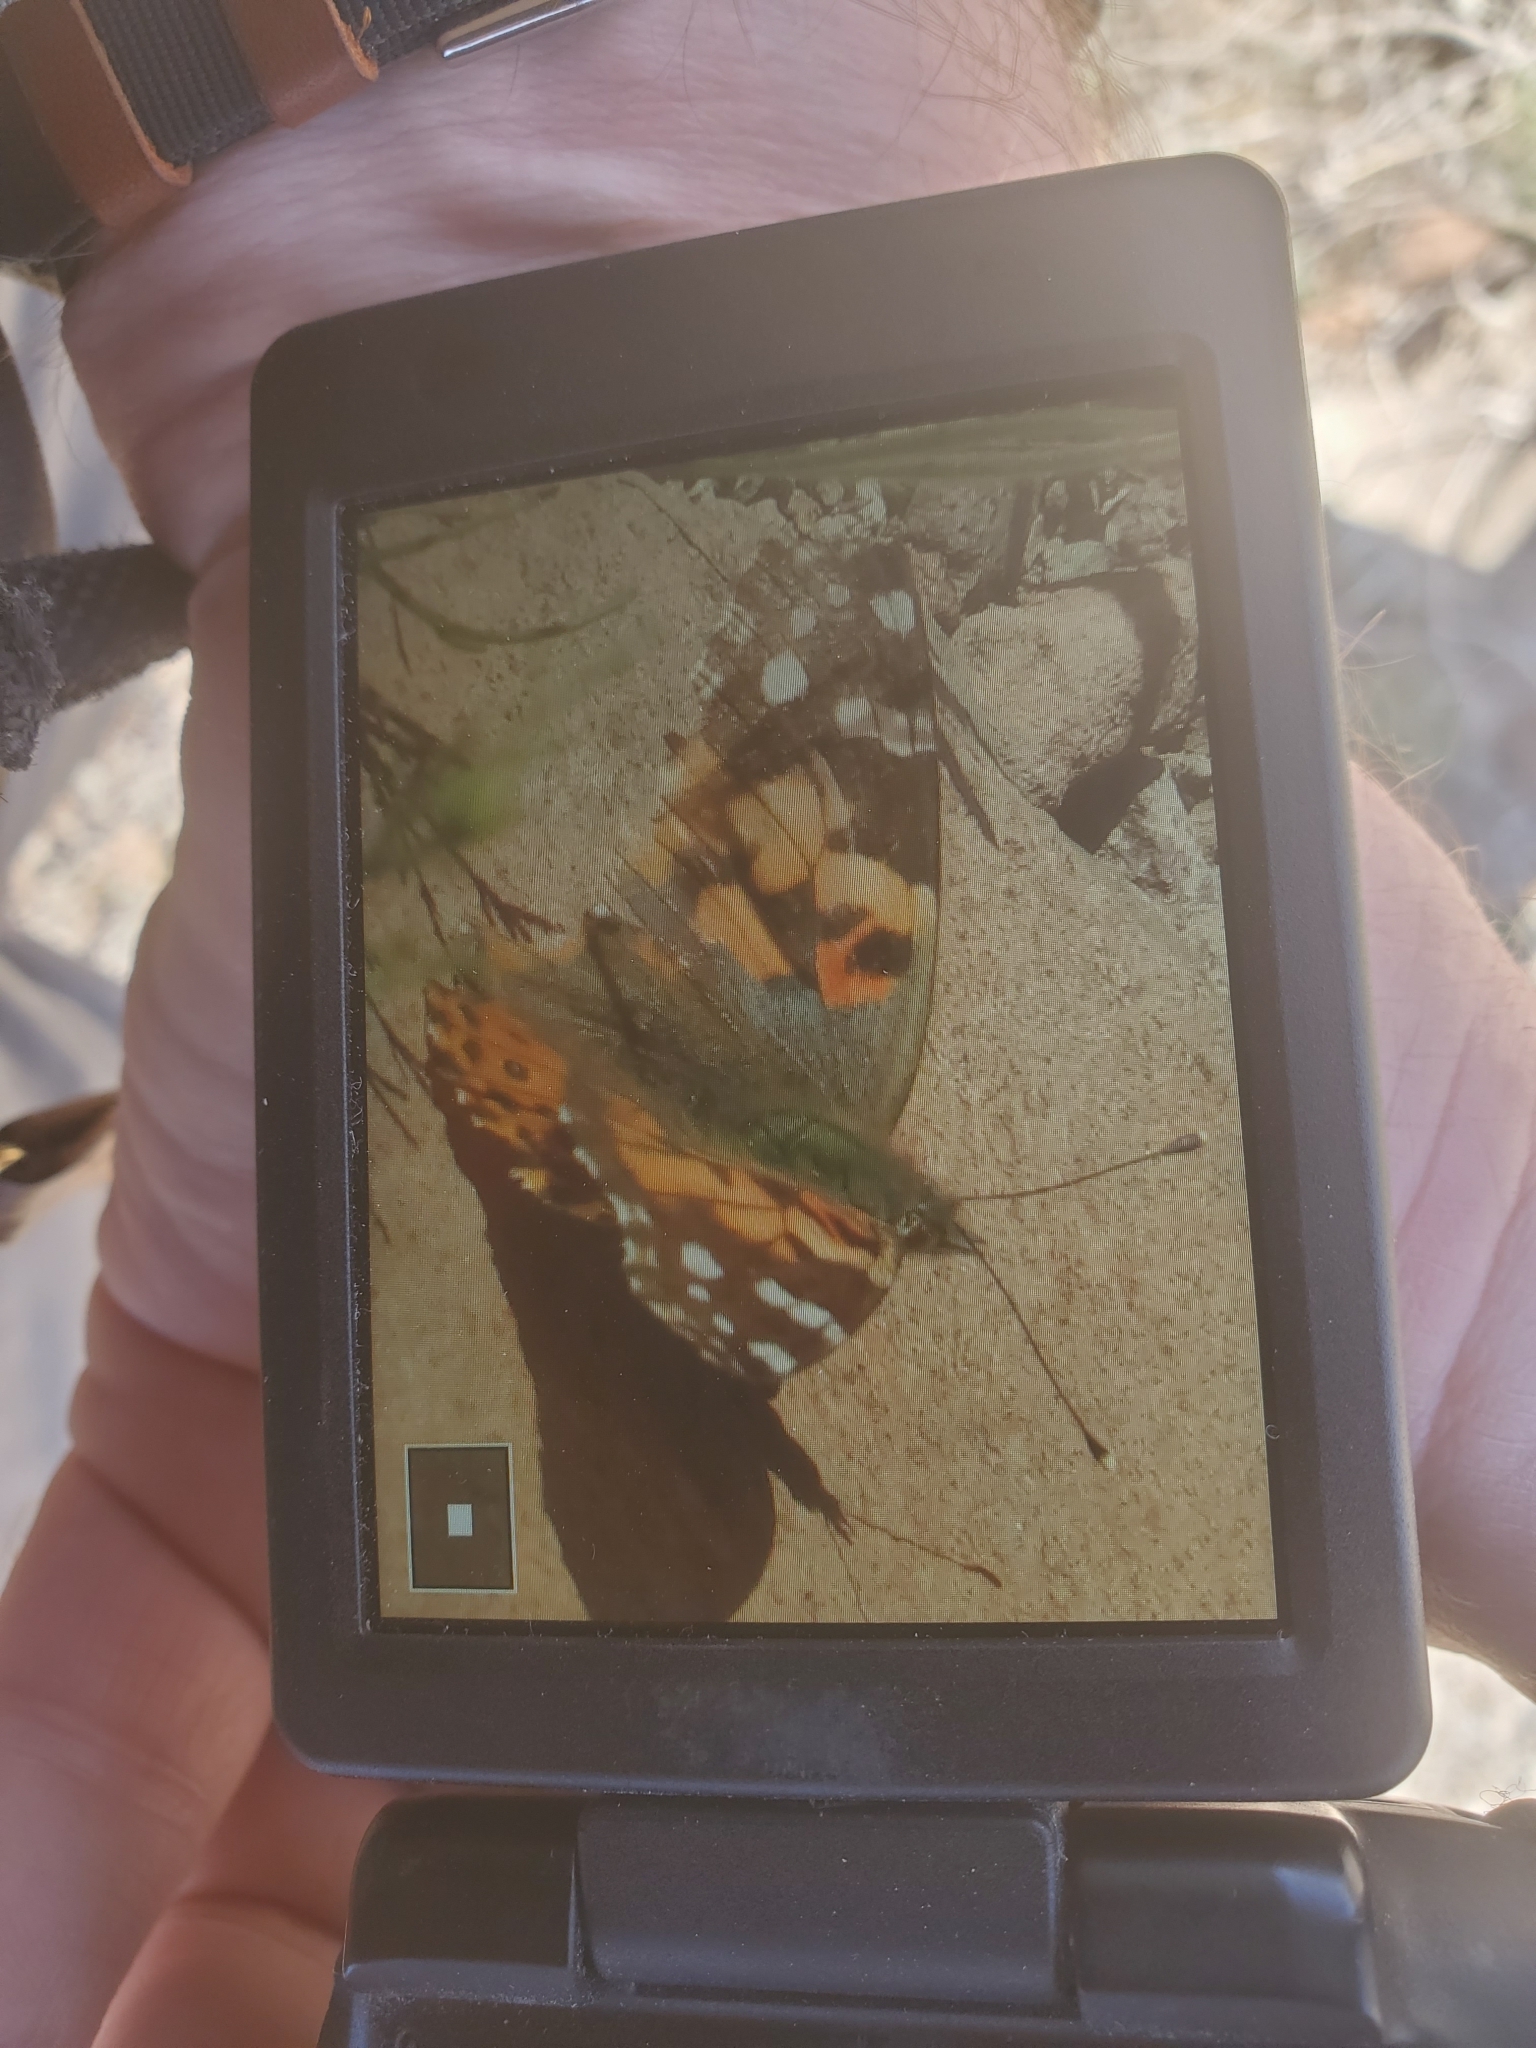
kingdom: Animalia
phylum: Arthropoda
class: Insecta
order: Lepidoptera
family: Nymphalidae
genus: Vanessa
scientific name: Vanessa cardui
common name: Painted lady
